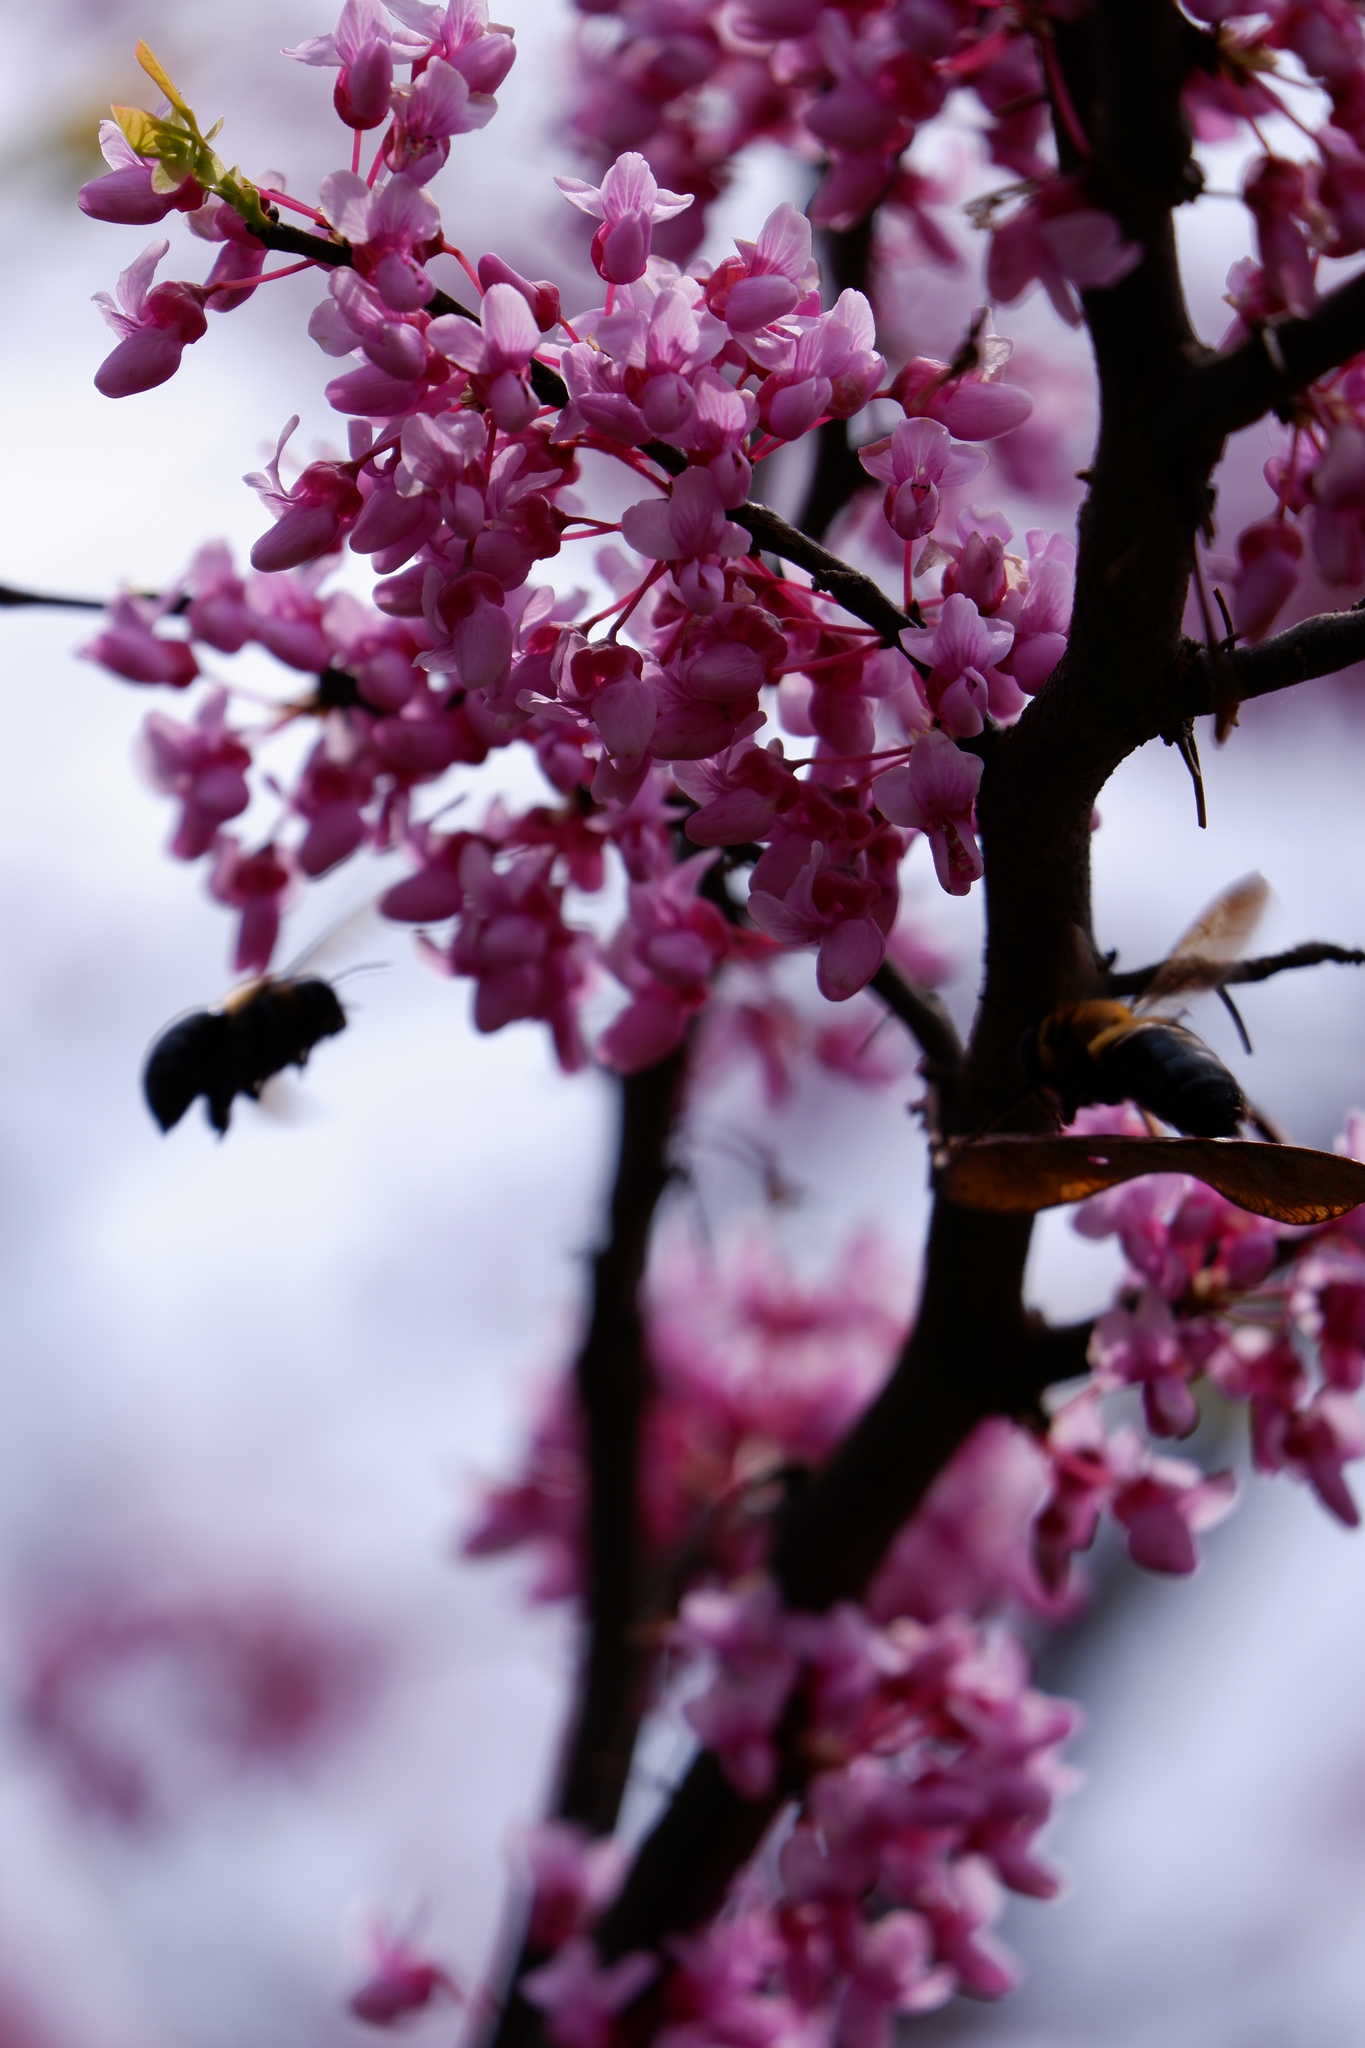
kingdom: Animalia
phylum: Arthropoda
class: Insecta
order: Hymenoptera
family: Apidae
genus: Xylocopa
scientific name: Xylocopa virginica
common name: Carpenter bee
